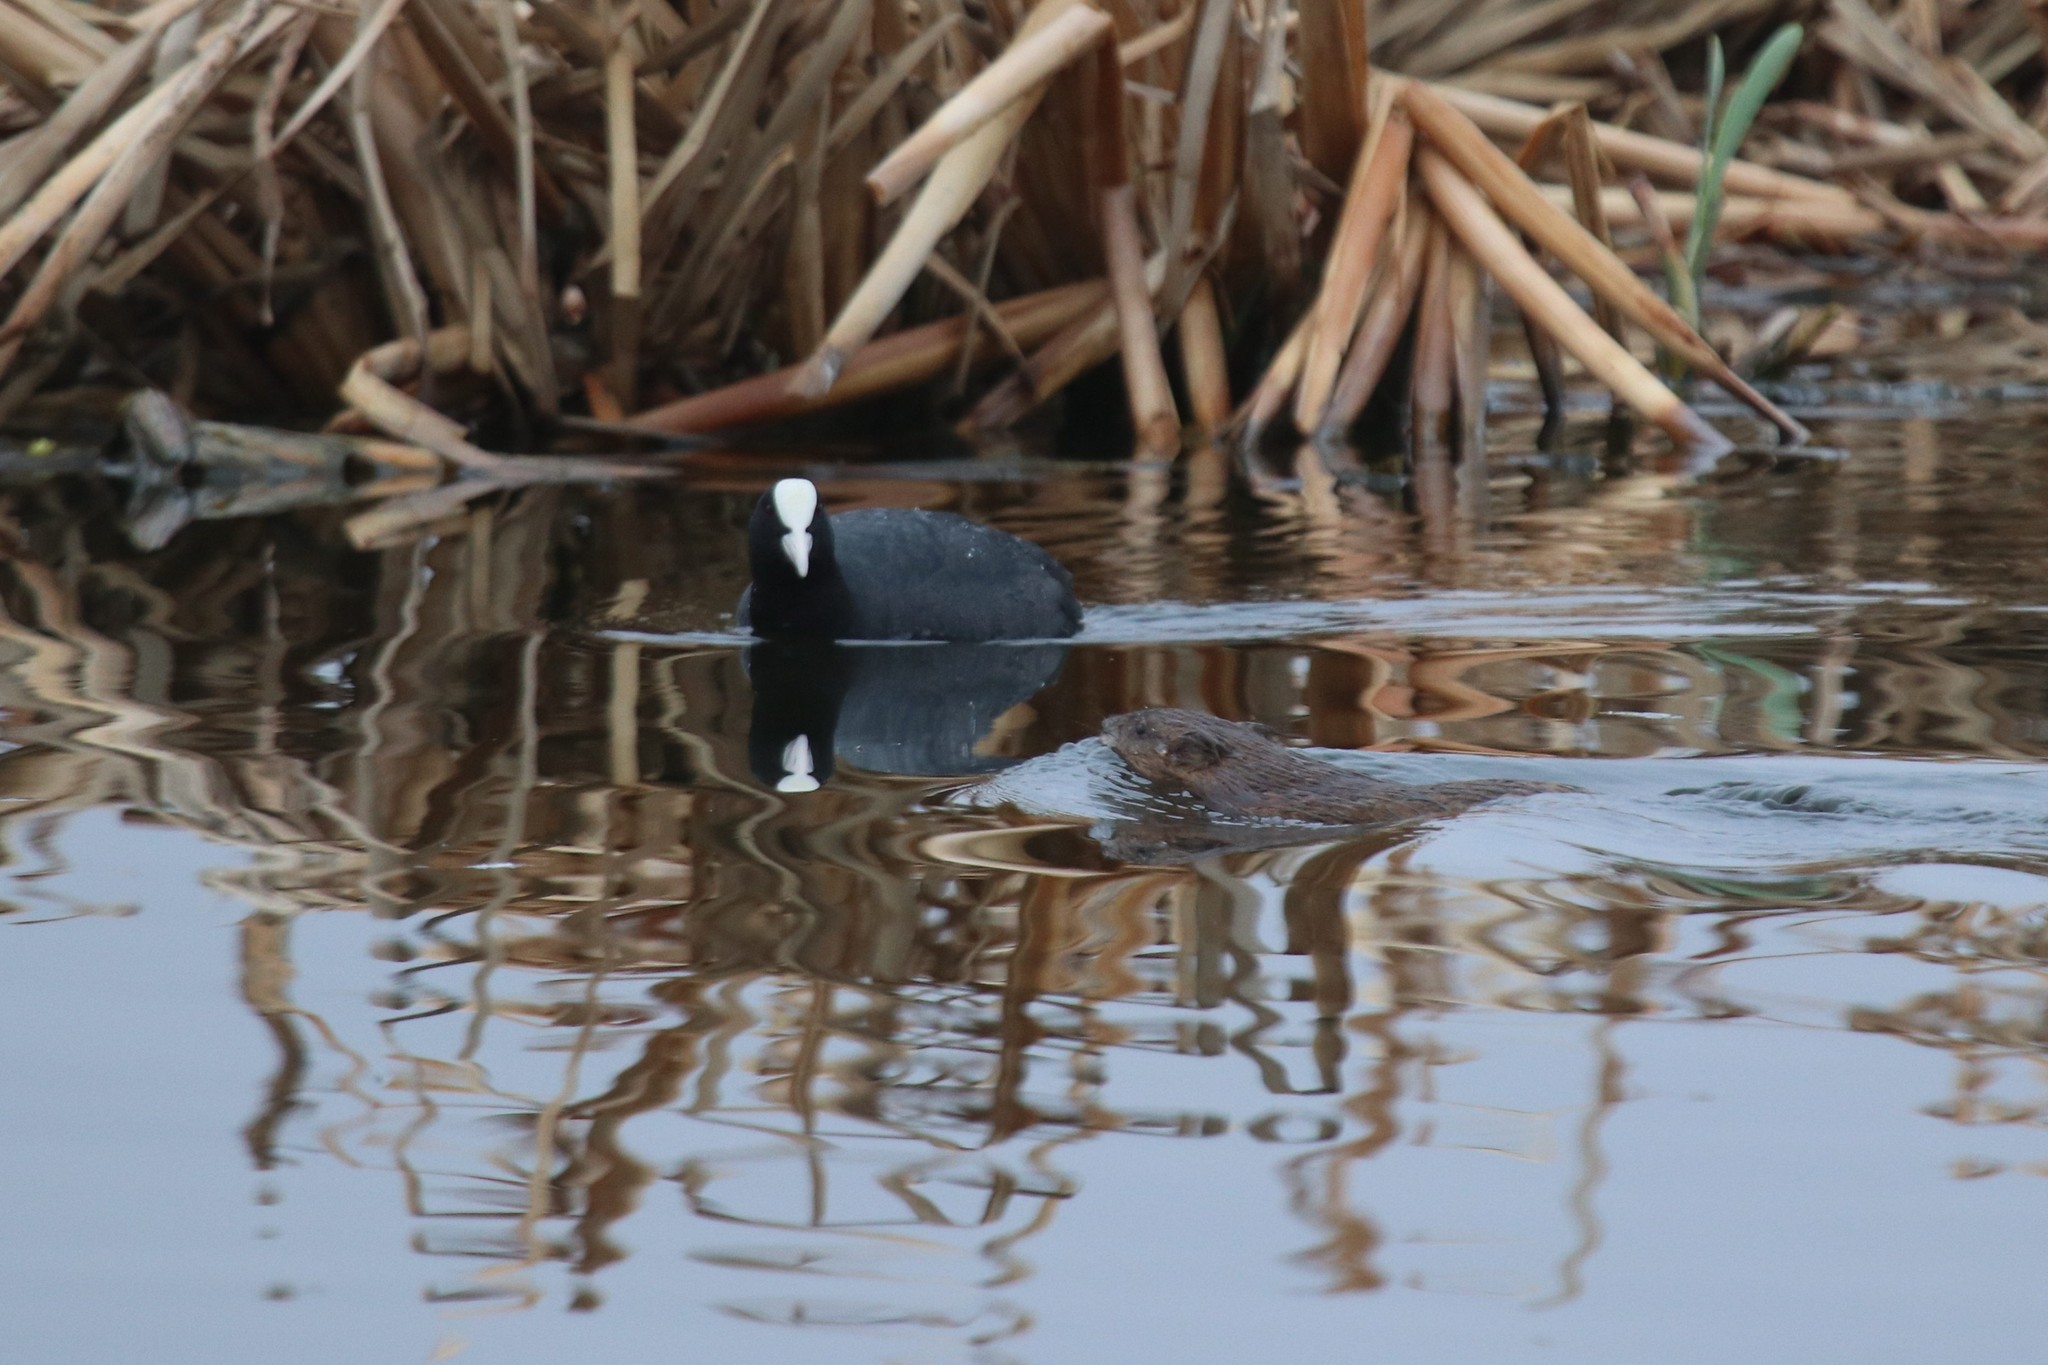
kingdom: Animalia
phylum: Chordata
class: Mammalia
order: Rodentia
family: Cricetidae
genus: Ondatra
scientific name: Ondatra zibethicus
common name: Muskrat
